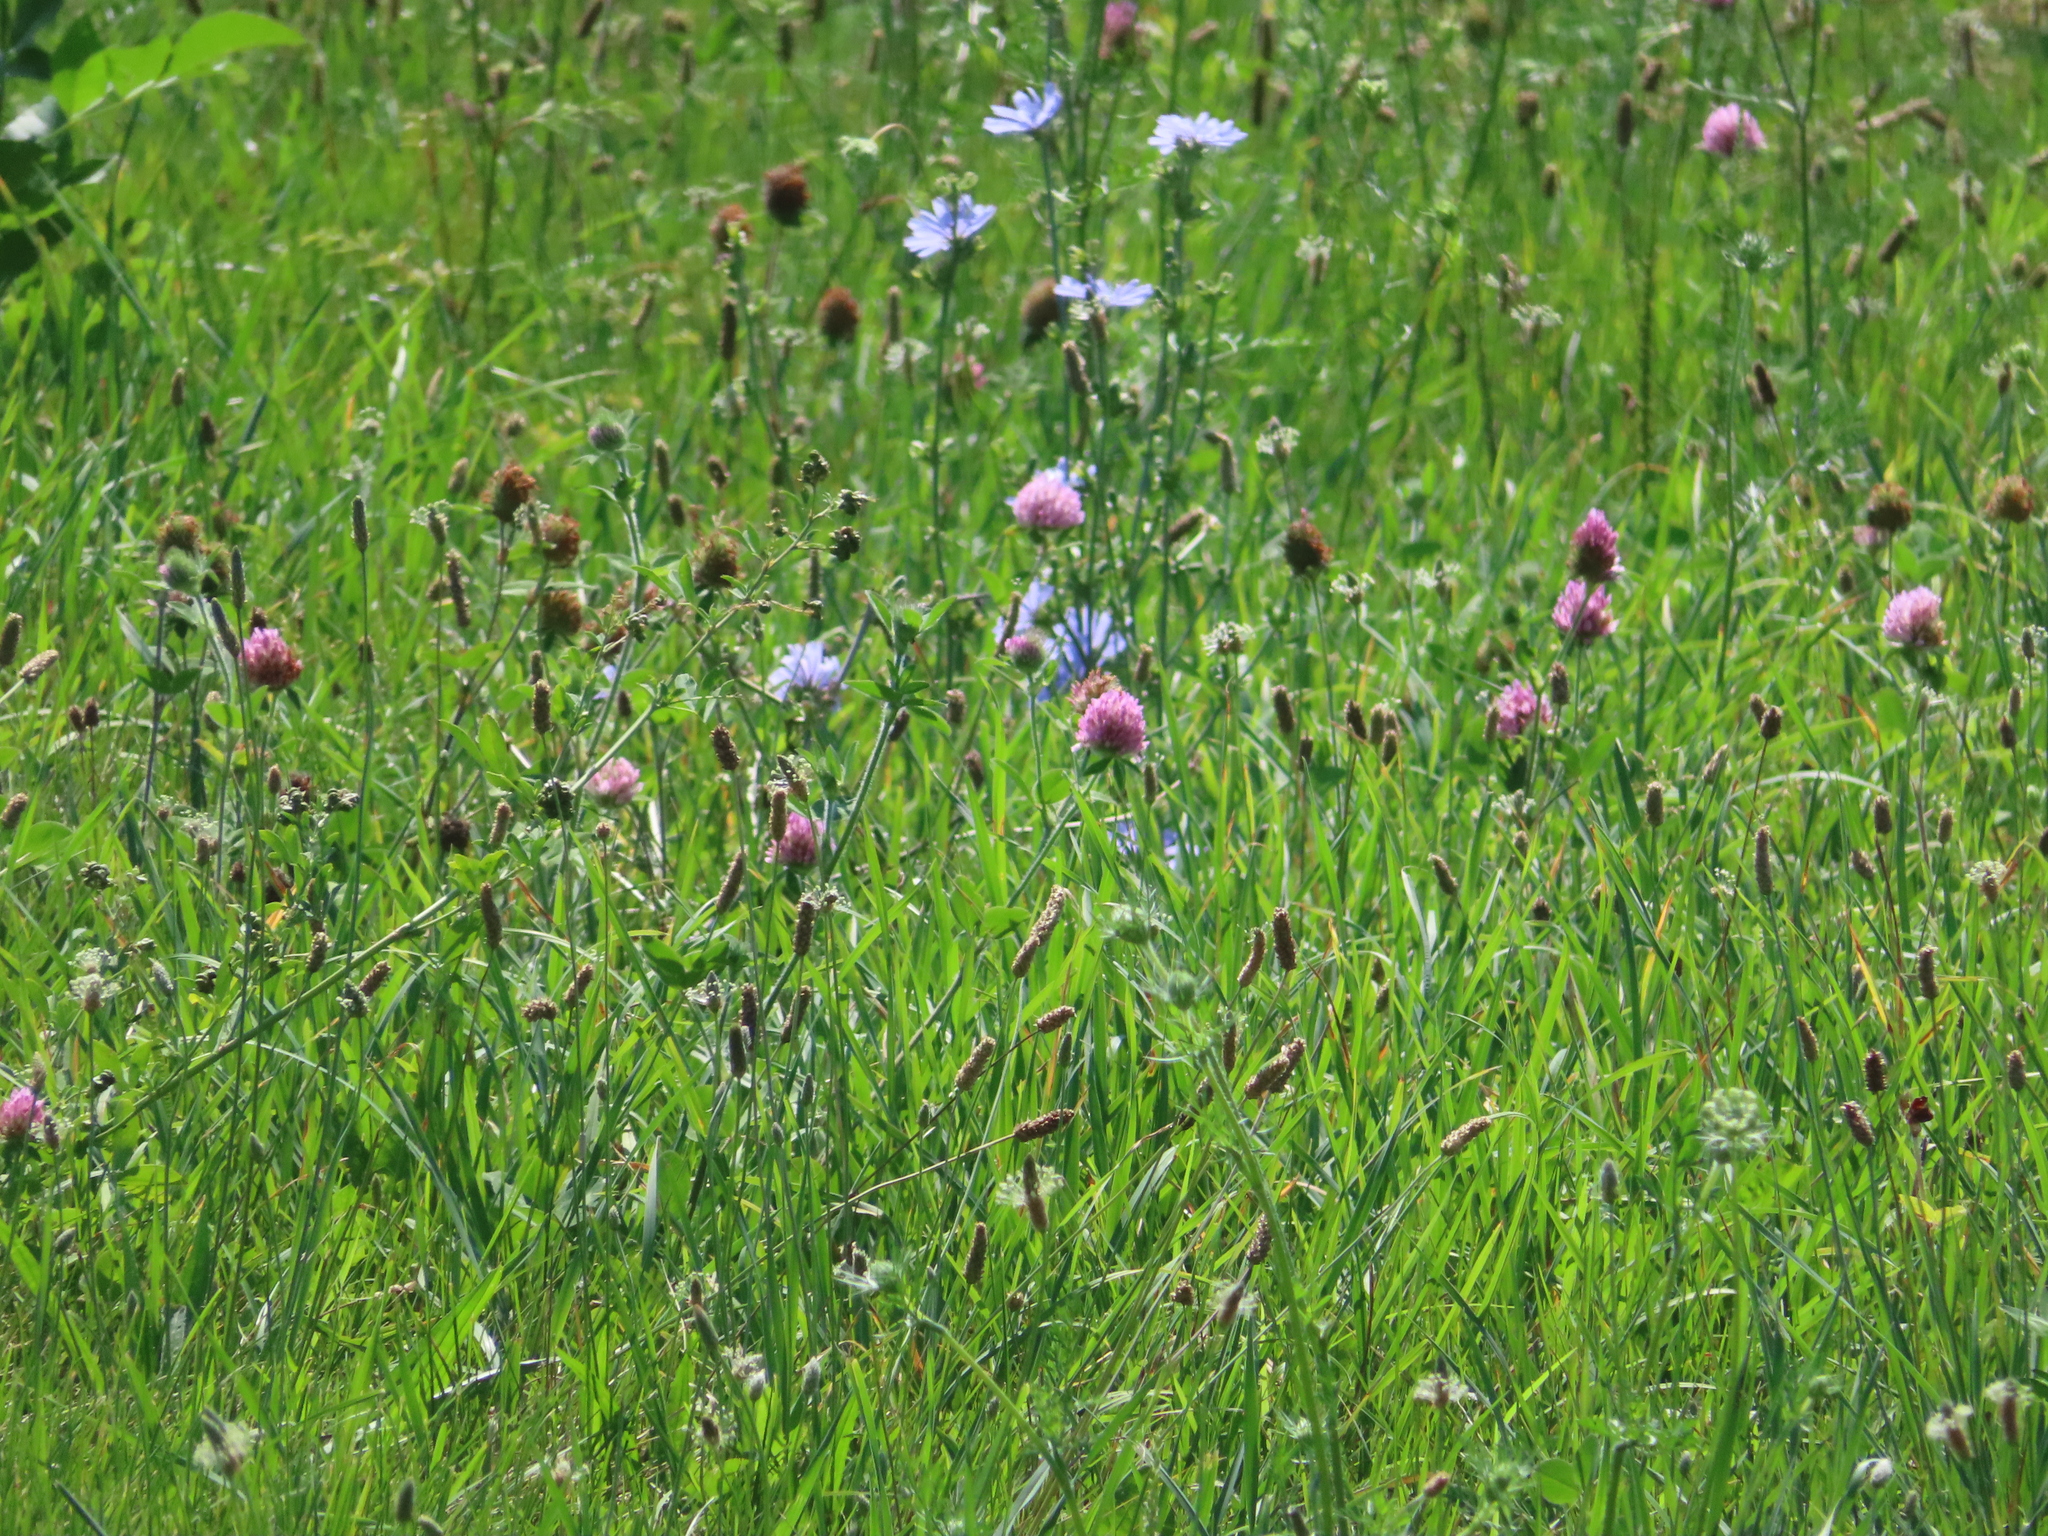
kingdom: Plantae
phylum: Tracheophyta
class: Magnoliopsida
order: Asterales
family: Asteraceae
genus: Cichorium
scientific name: Cichorium intybus
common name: Chicory
